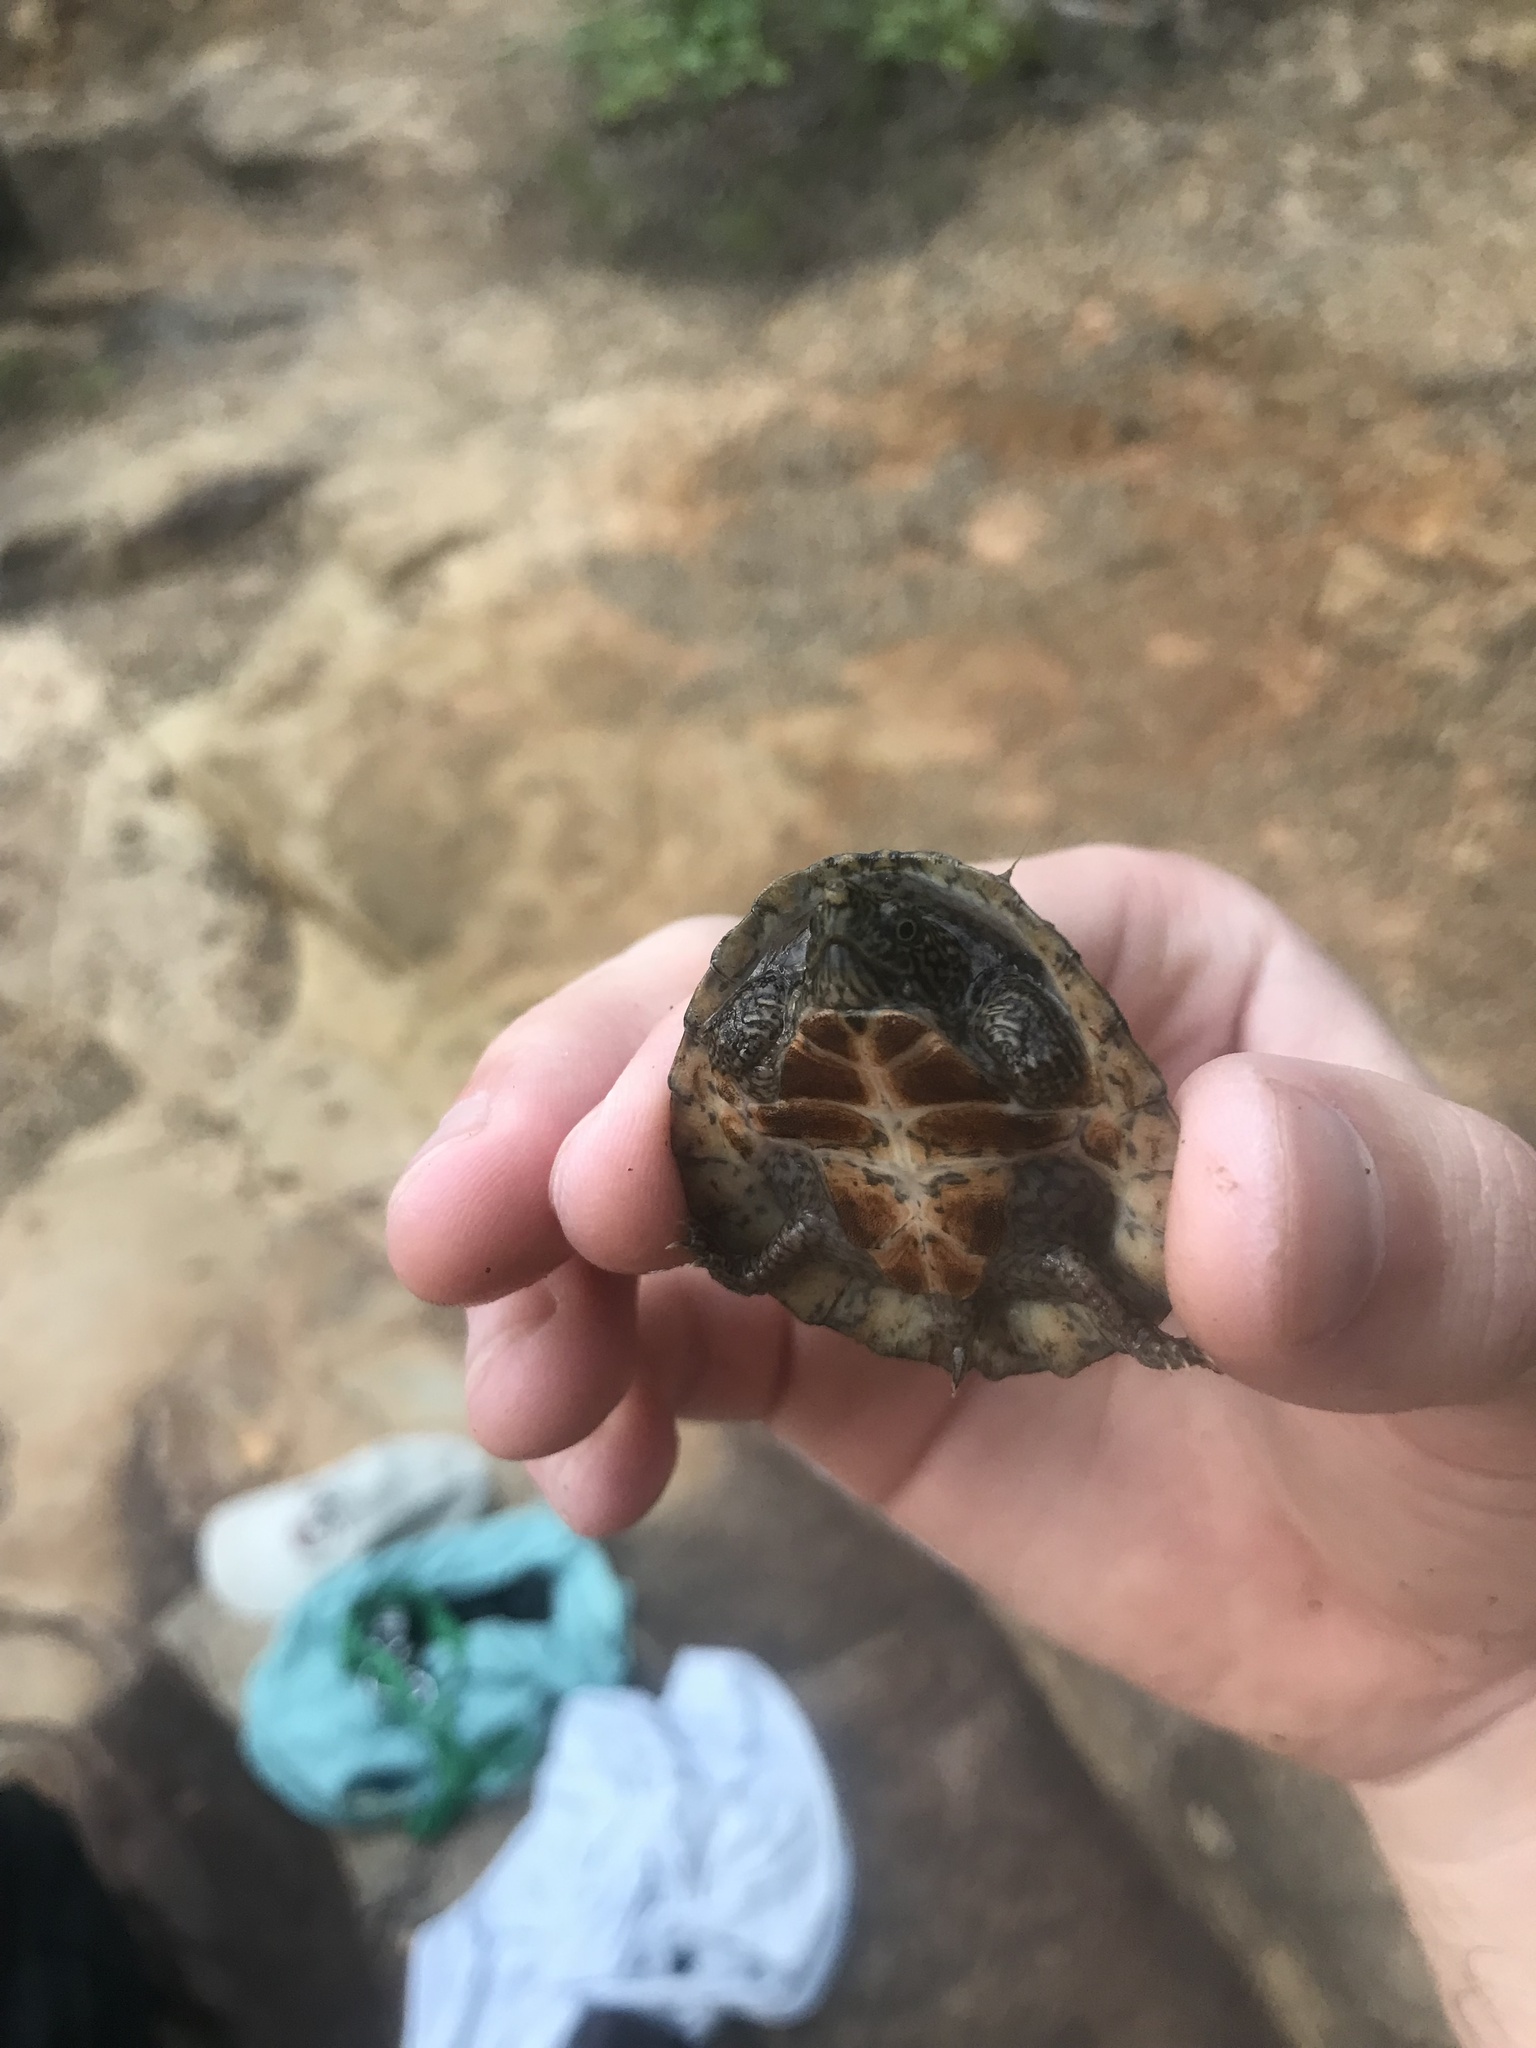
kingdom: Animalia
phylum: Chordata
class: Testudines
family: Kinosternidae
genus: Sternotherus
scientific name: Sternotherus peltifer
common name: Stripeneck musk turtle
